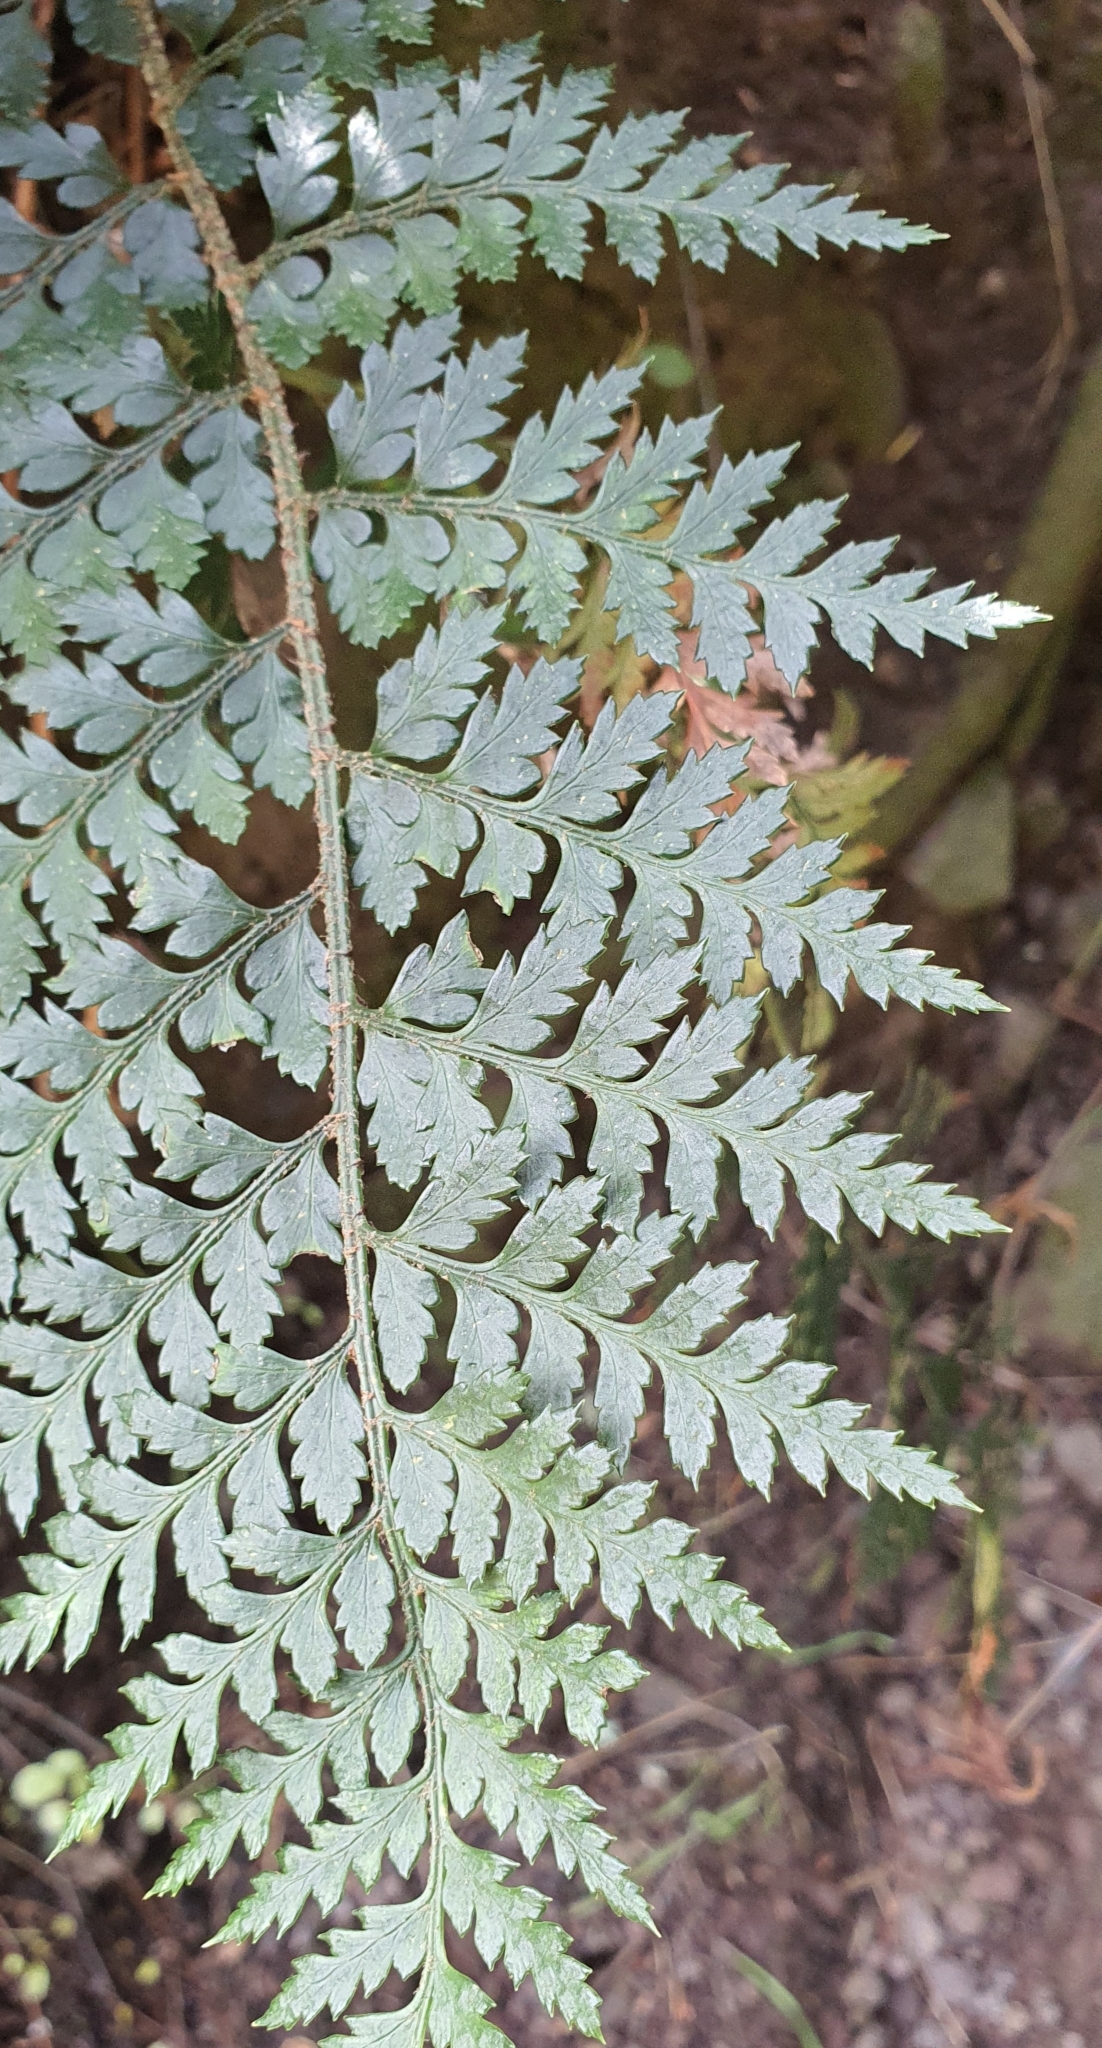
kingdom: Plantae
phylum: Tracheophyta
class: Polypodiopsida
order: Polypodiales
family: Dryopteridaceae
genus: Polystichum
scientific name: Polystichum oculatum
